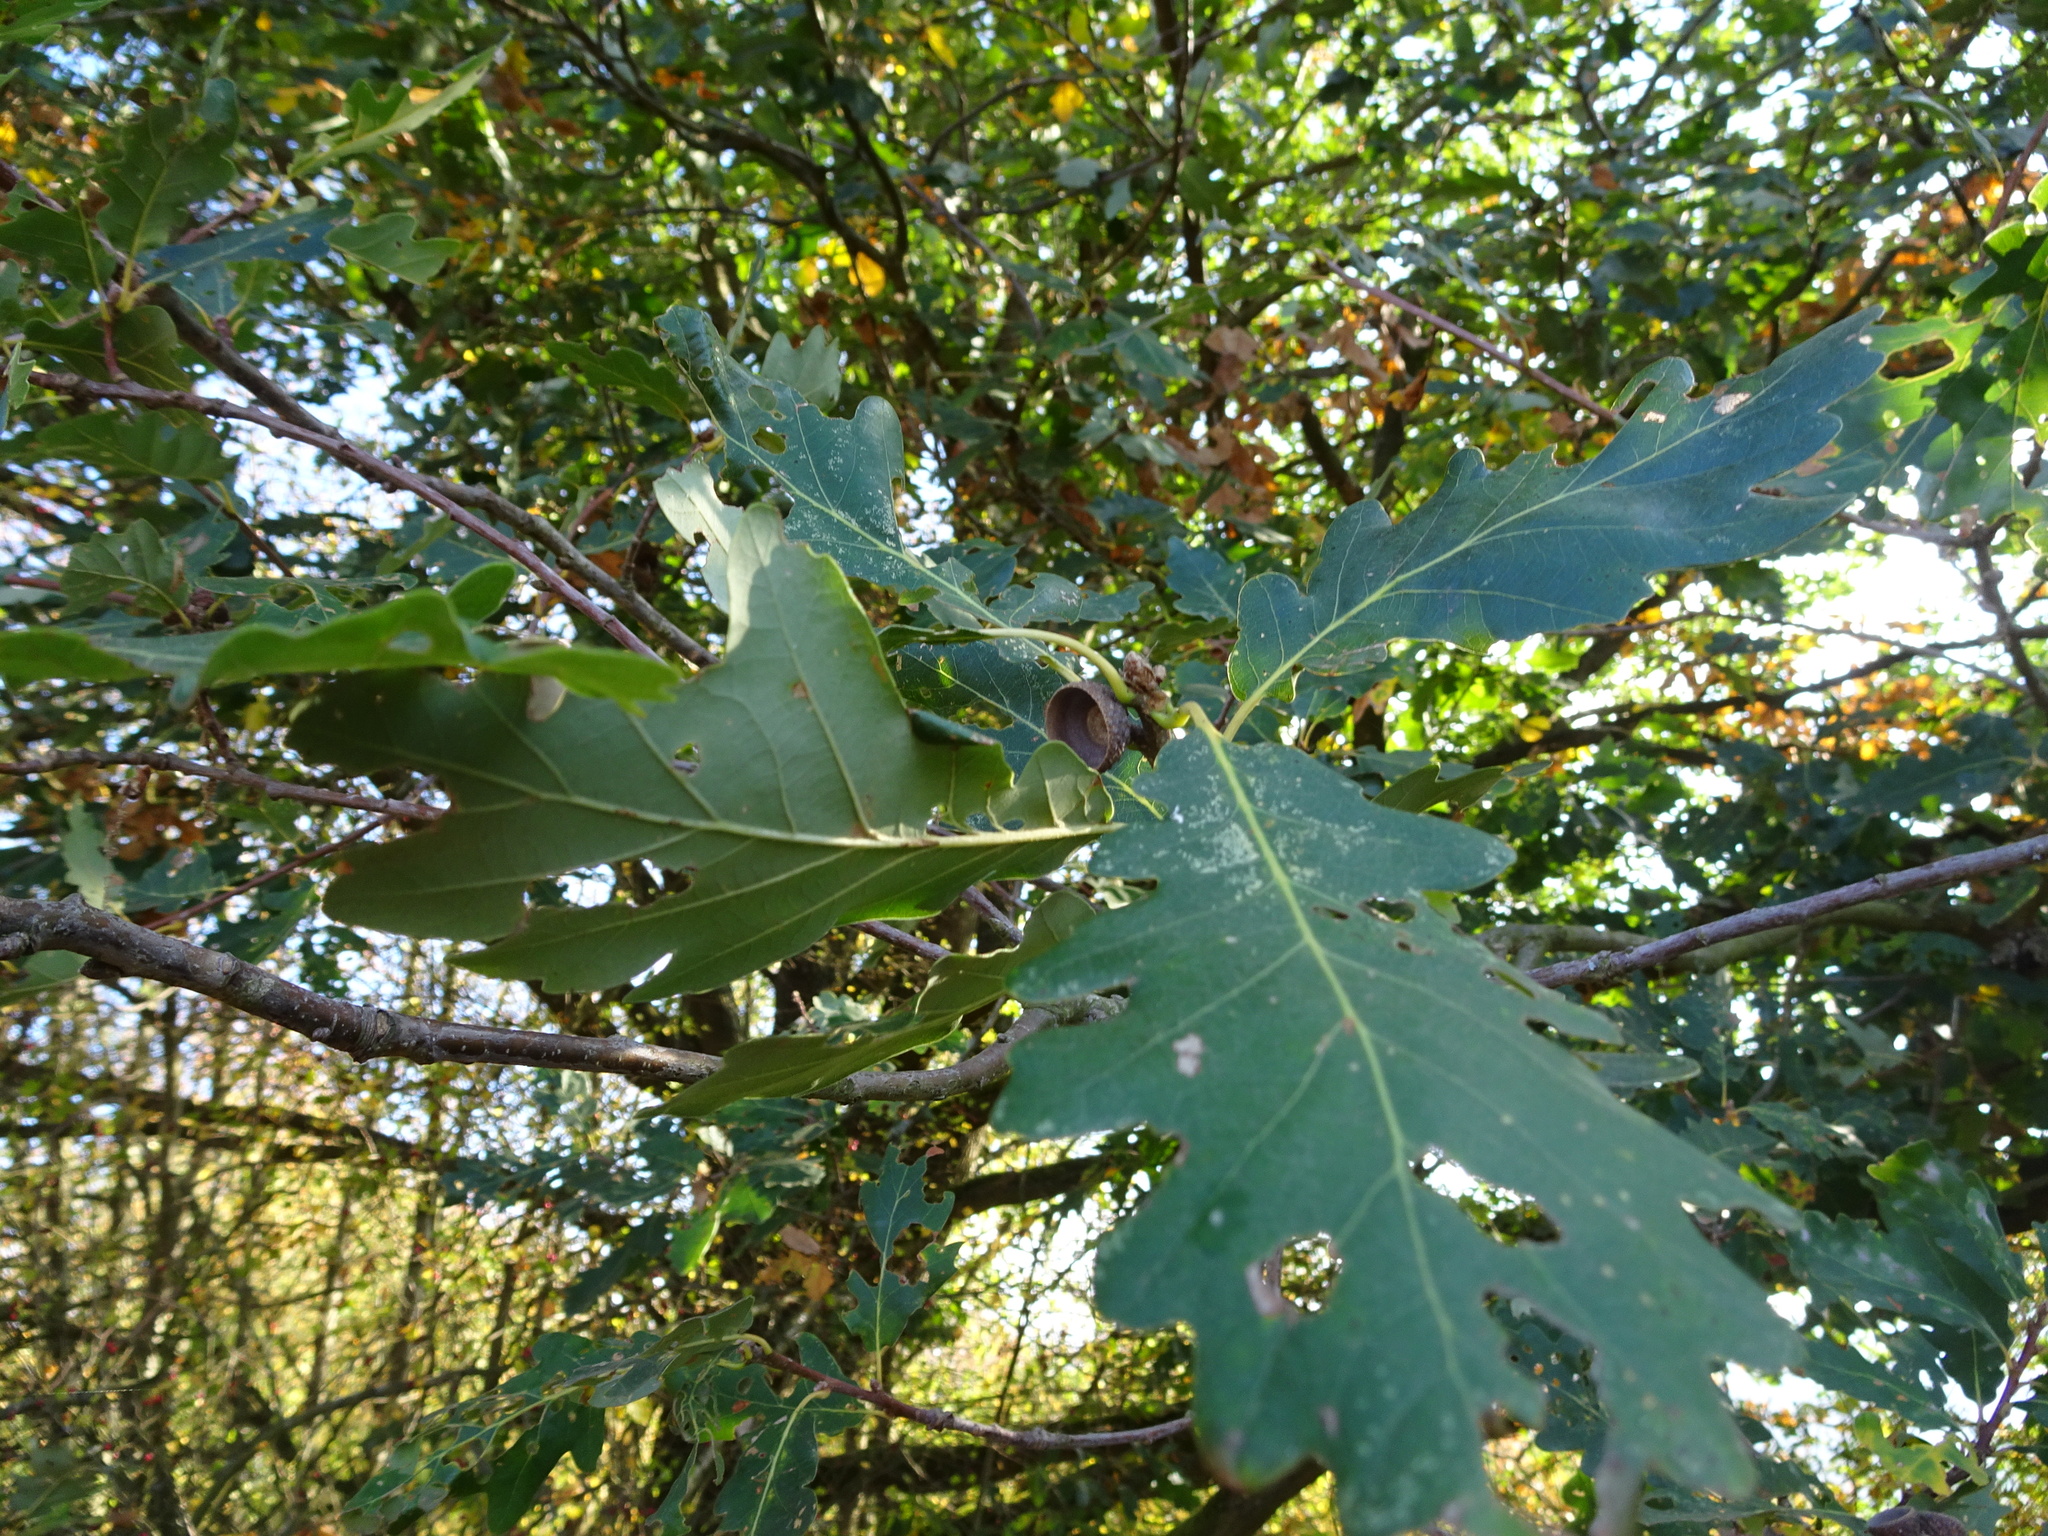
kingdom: Plantae
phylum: Tracheophyta
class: Magnoliopsida
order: Fagales
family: Fagaceae
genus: Quercus
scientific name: Quercus petraea
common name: Sessile oak
